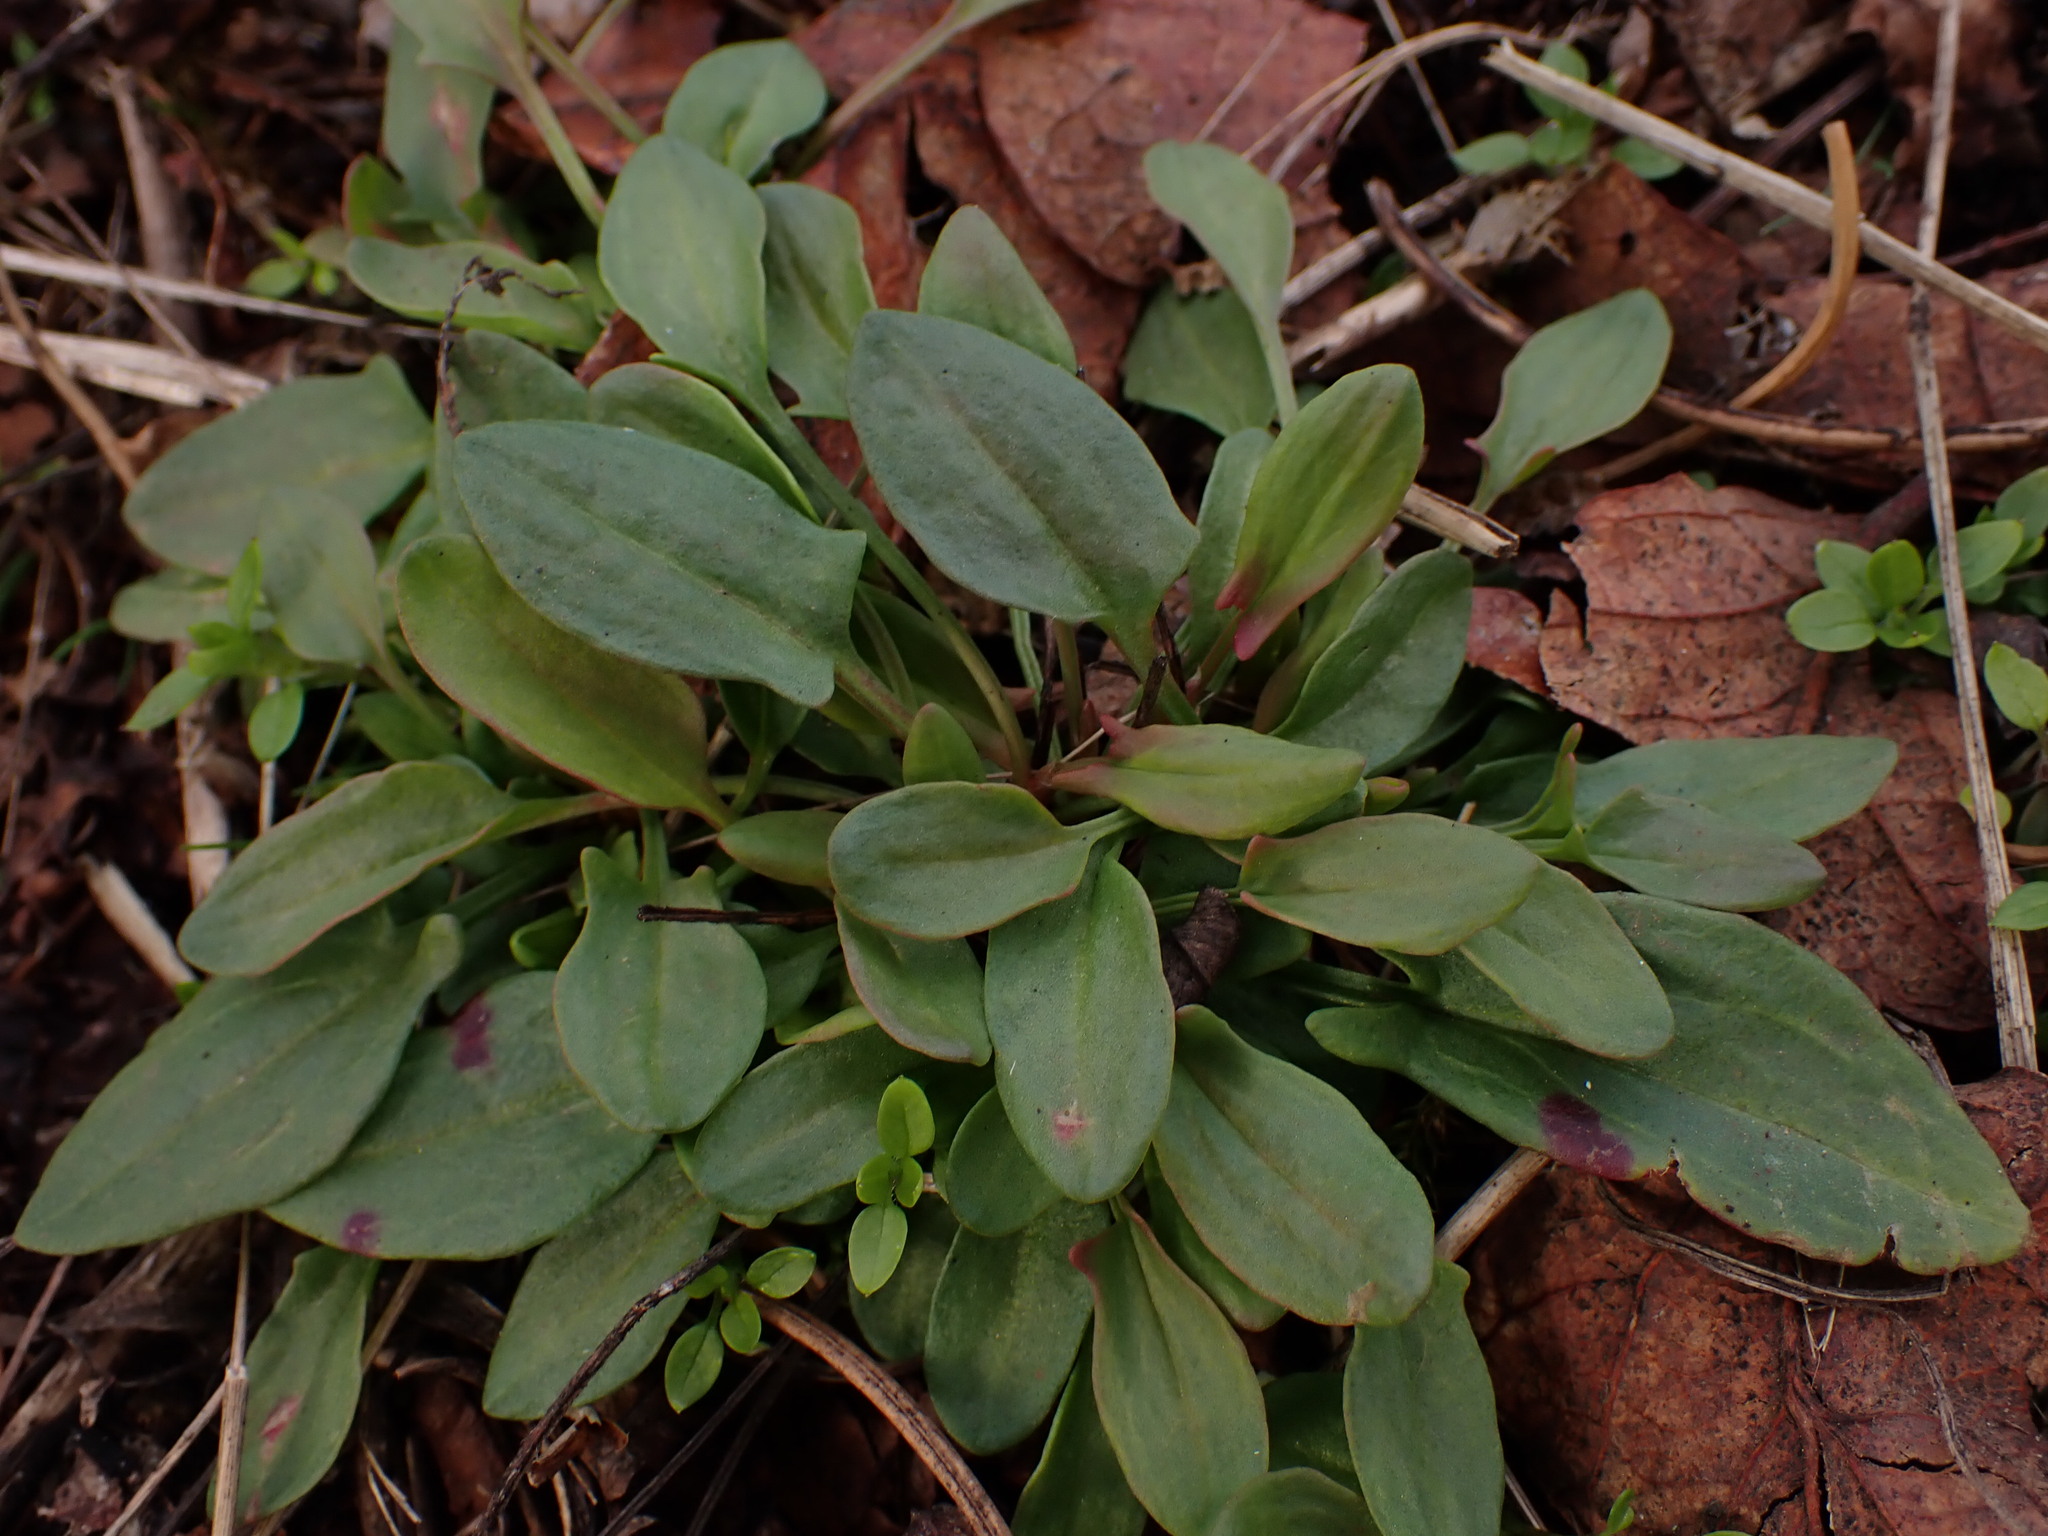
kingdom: Plantae
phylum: Tracheophyta
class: Magnoliopsida
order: Caryophyllales
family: Polygonaceae
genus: Rumex
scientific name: Rumex acetosella
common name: Common sheep sorrel
